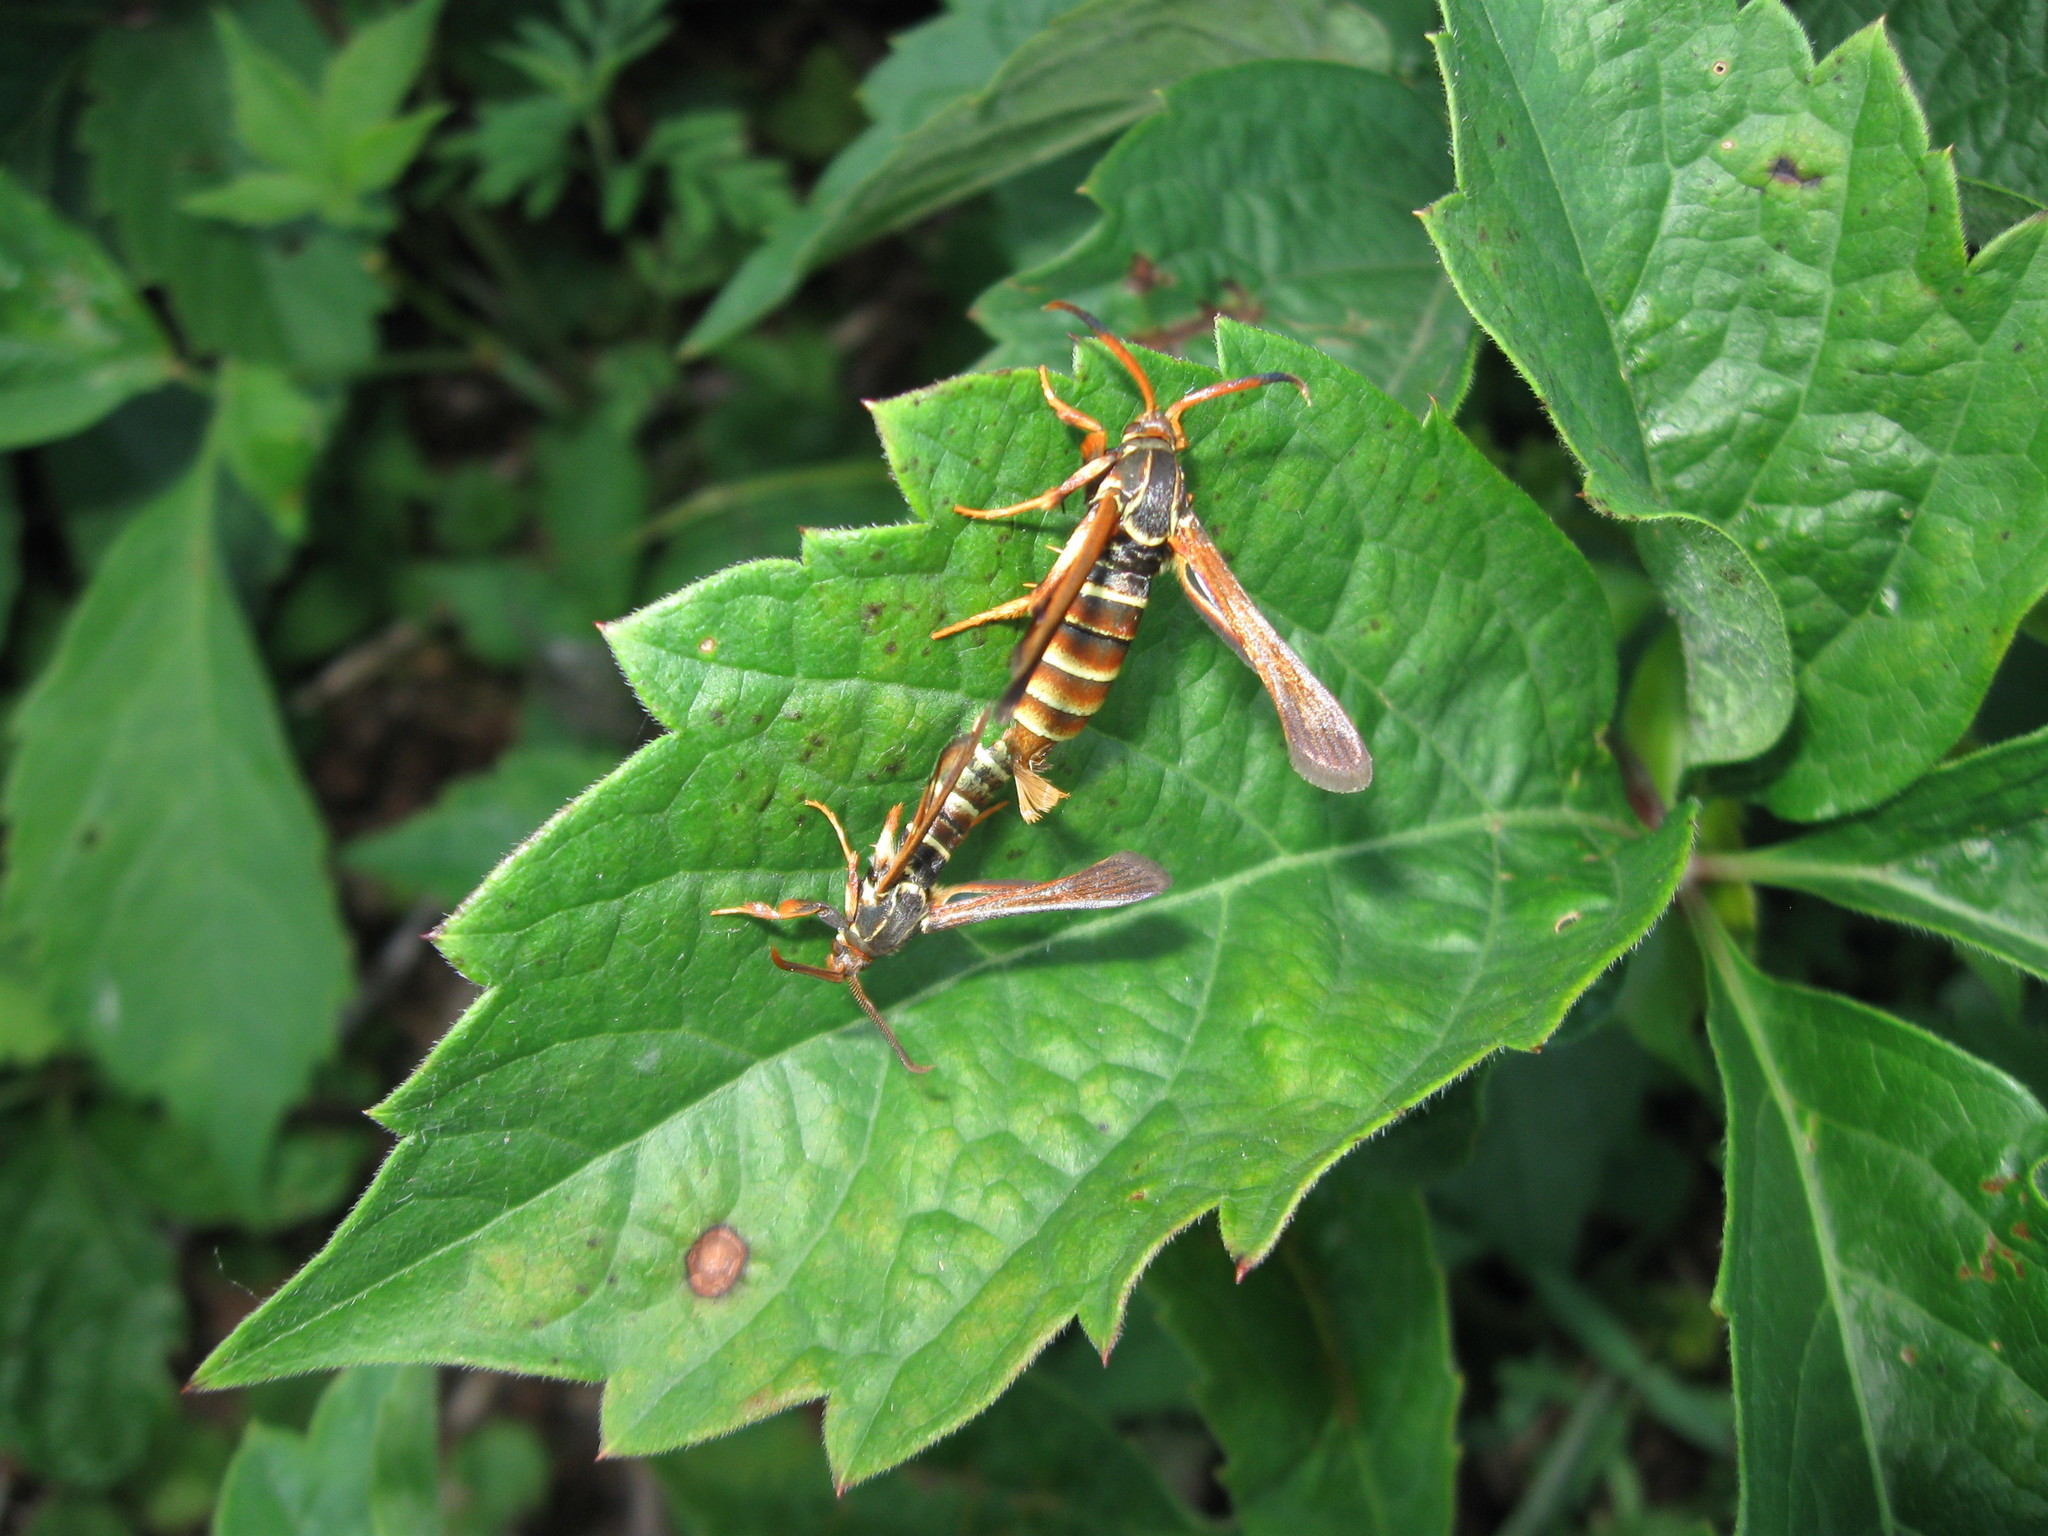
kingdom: Animalia
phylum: Arthropoda
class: Insecta
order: Lepidoptera
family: Sesiidae
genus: Vitacea
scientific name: Vitacea polistiformis
